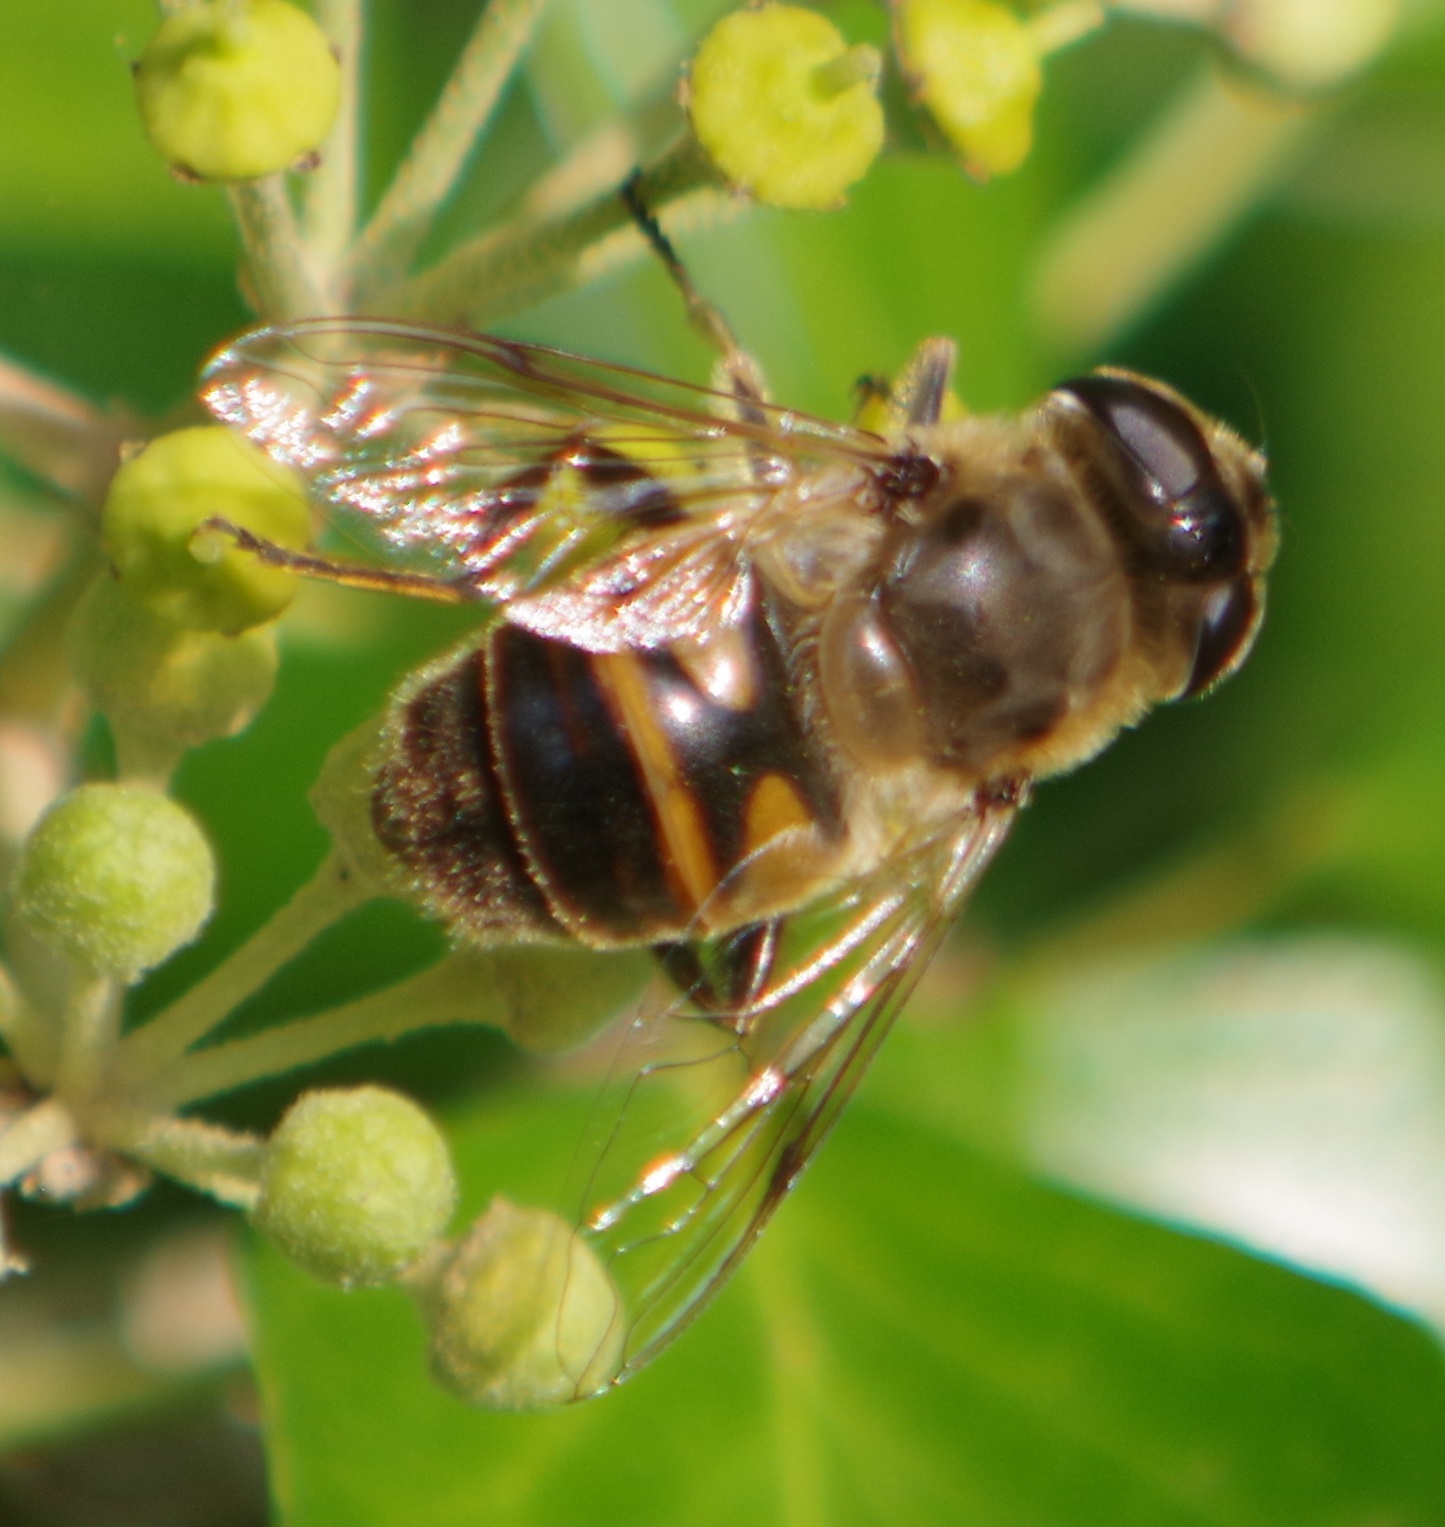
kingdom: Animalia
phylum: Arthropoda
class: Insecta
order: Diptera
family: Syrphidae
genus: Eristalis
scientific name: Eristalis tenax
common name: Drone fly
